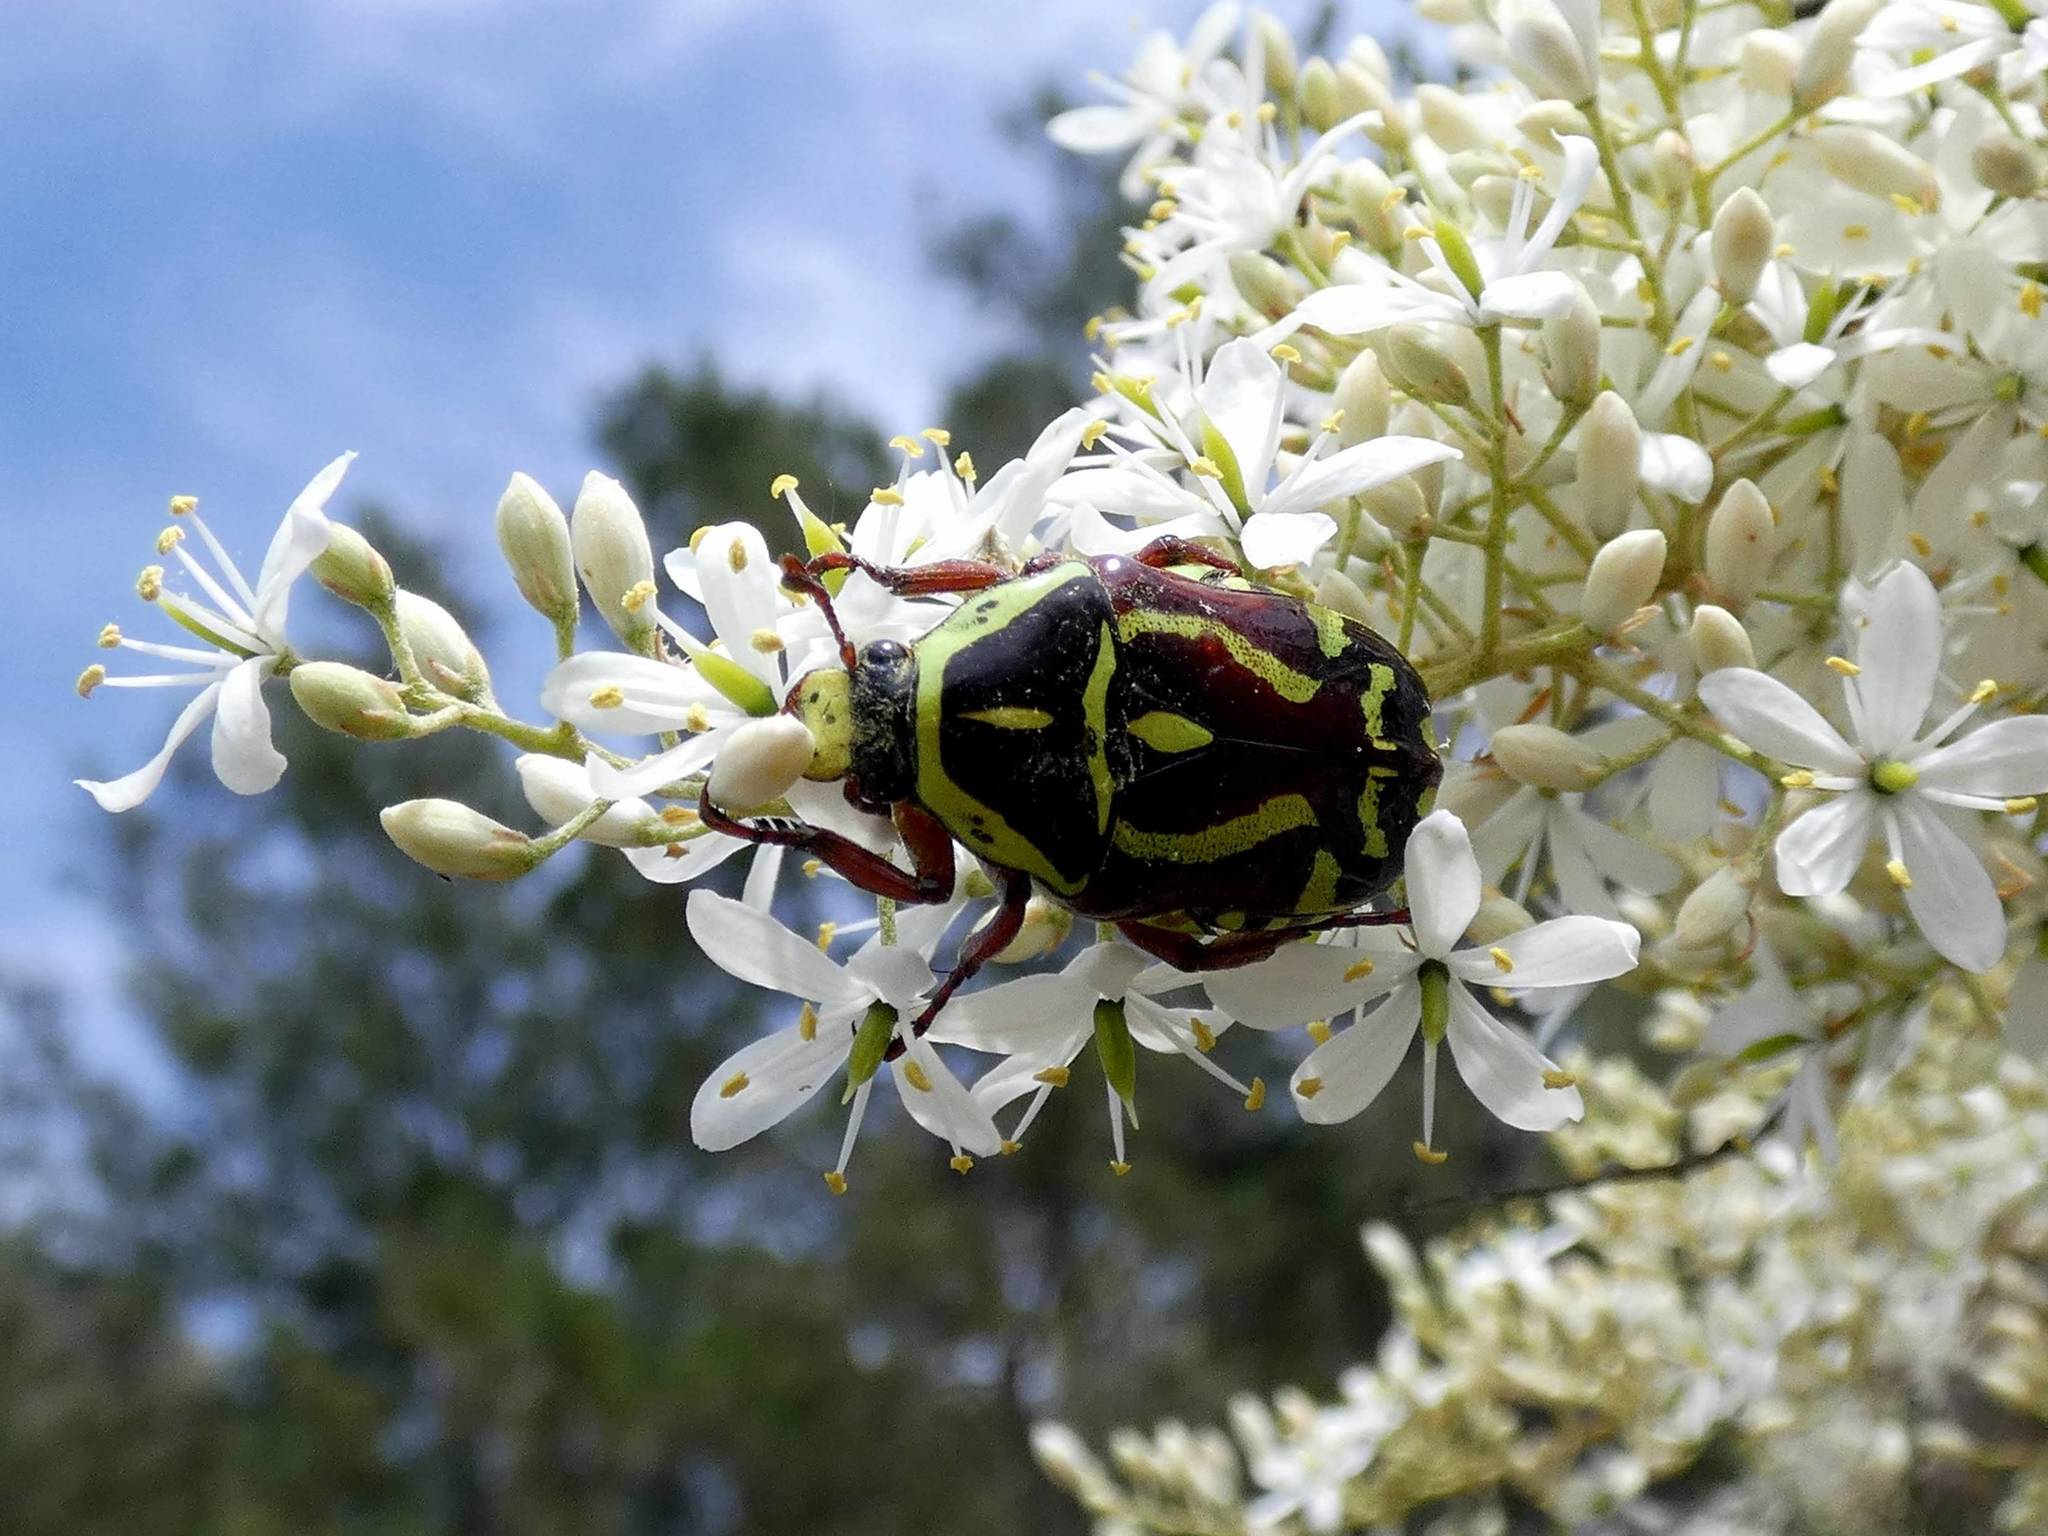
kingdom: Animalia
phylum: Arthropoda
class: Insecta
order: Coleoptera
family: Scarabaeidae
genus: Eupoecila
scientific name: Eupoecila australasiae
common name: Fiddler beetle
